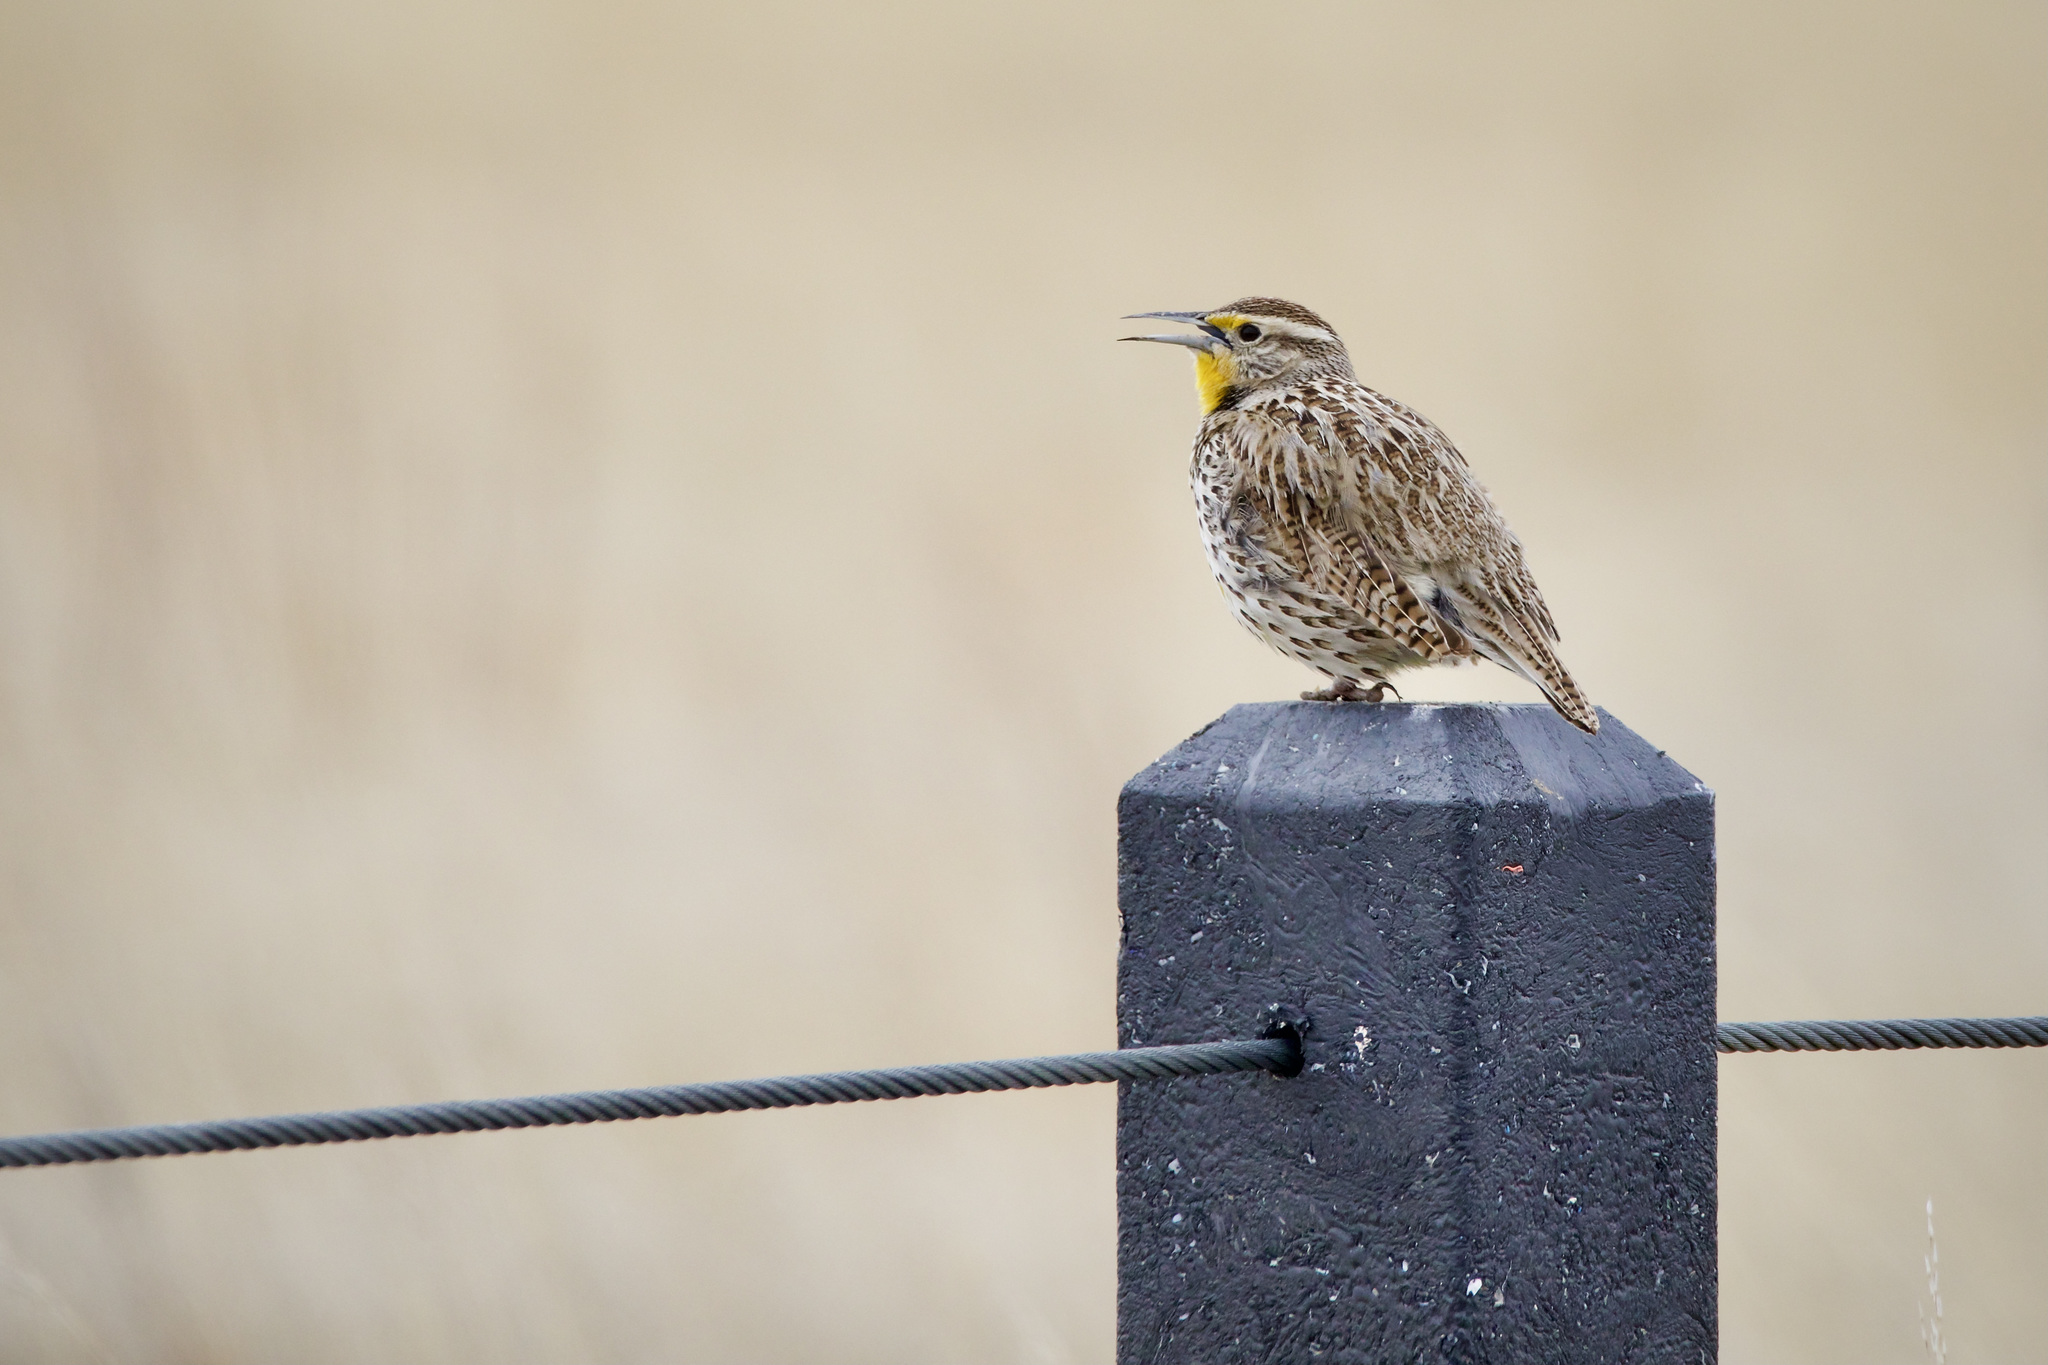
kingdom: Animalia
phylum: Chordata
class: Aves
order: Passeriformes
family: Icteridae
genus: Sturnella
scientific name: Sturnella neglecta
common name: Western meadowlark
